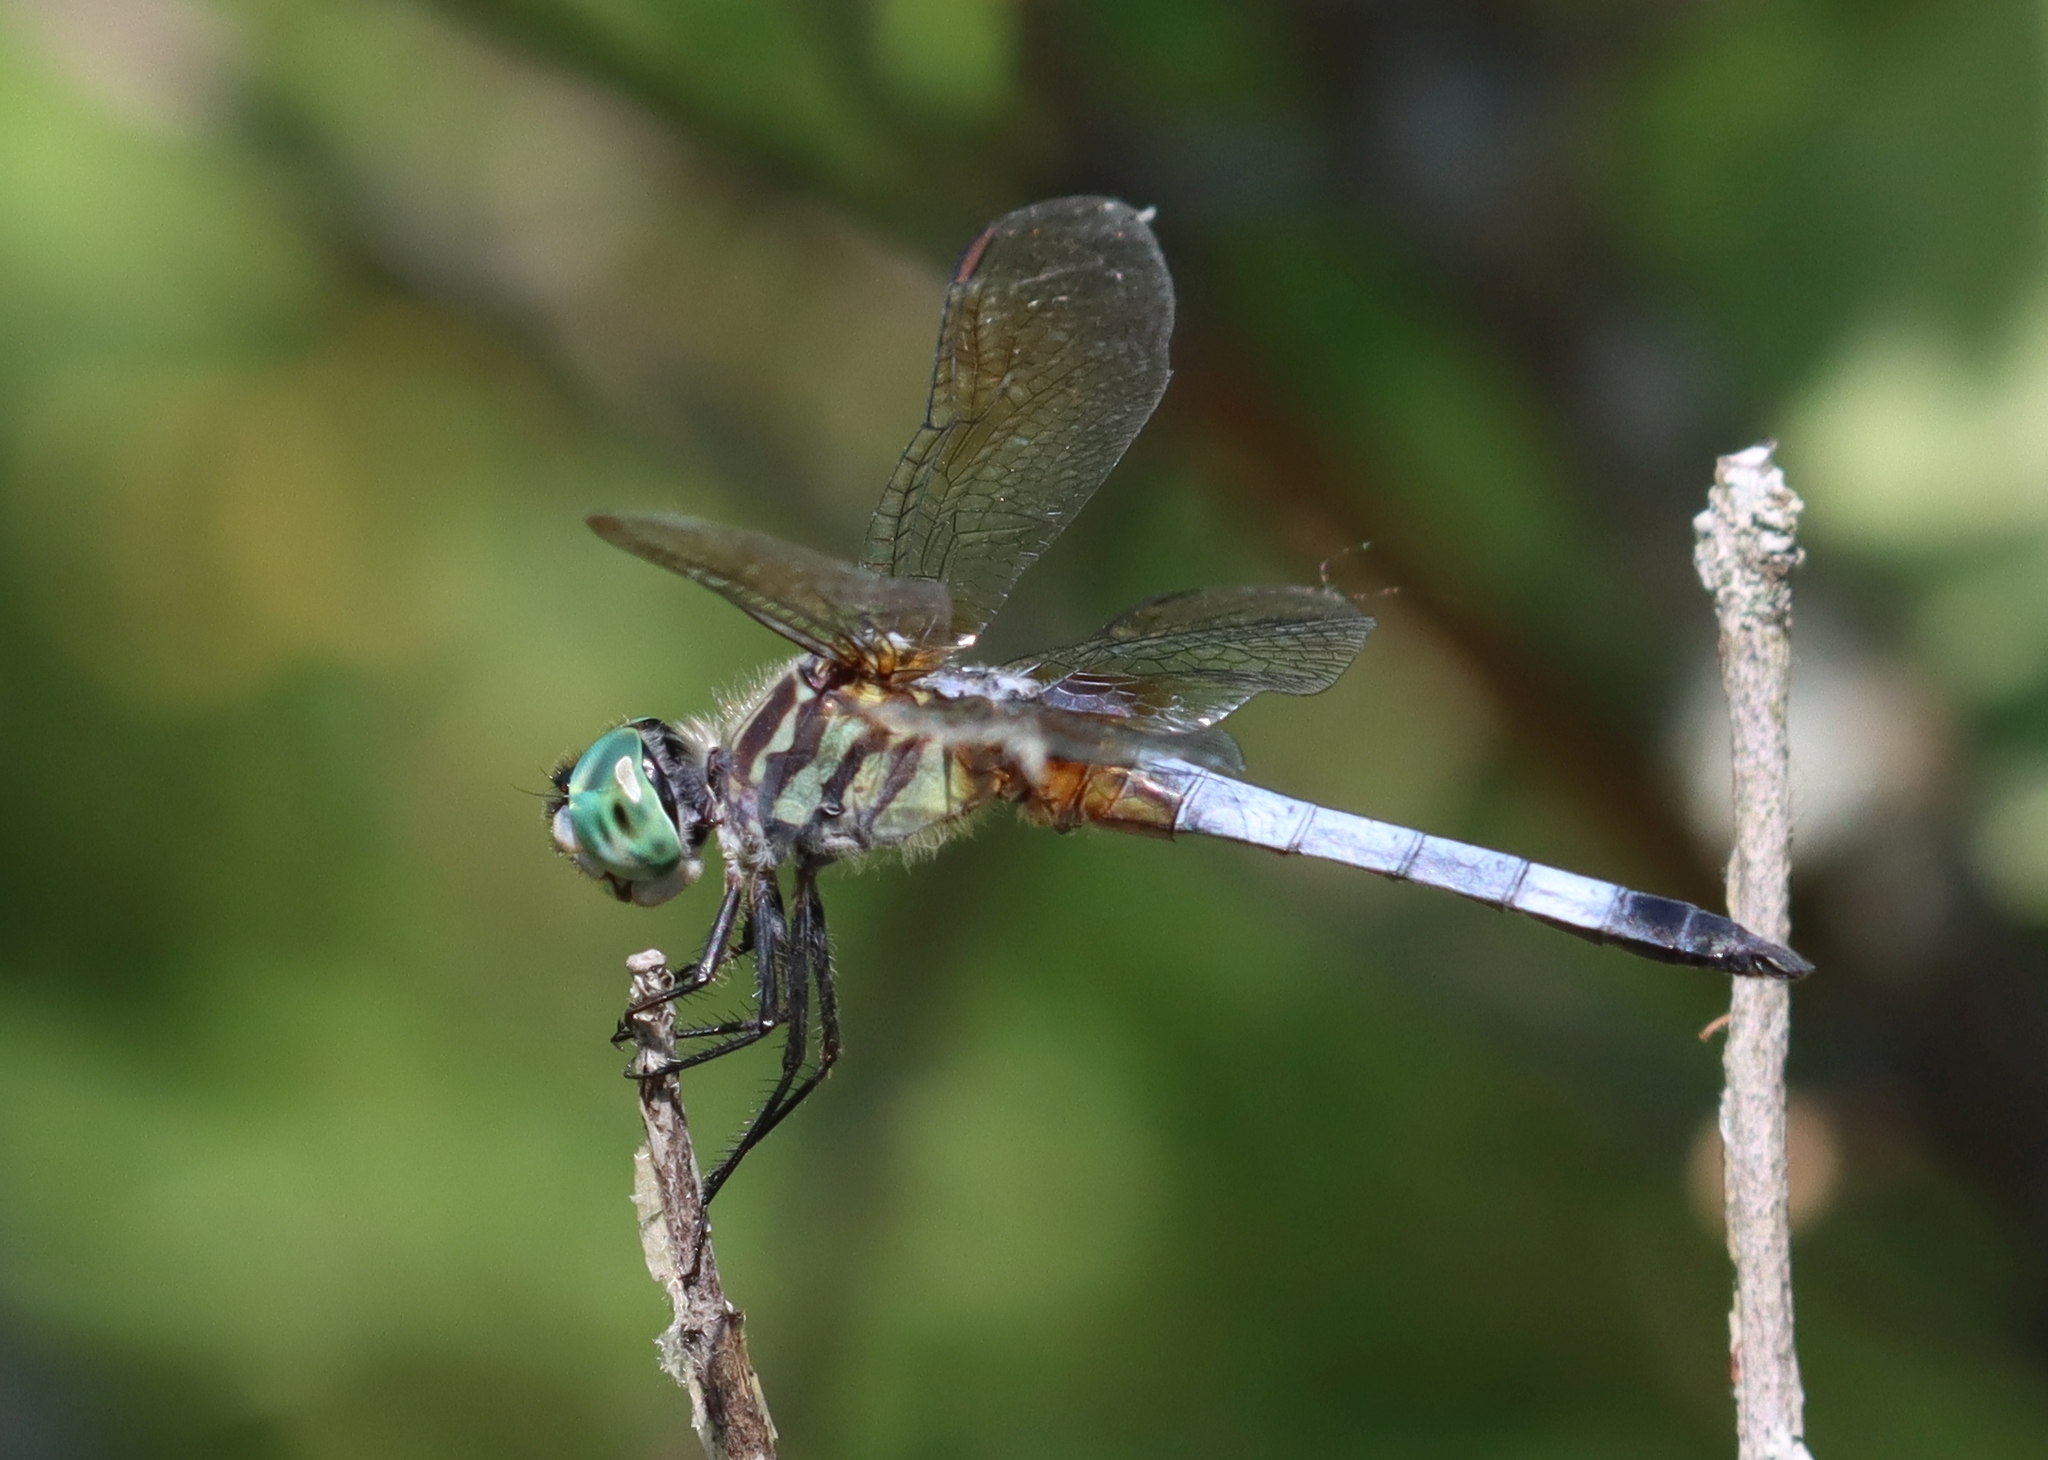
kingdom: Animalia
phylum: Arthropoda
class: Insecta
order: Odonata
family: Libellulidae
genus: Pachydiplax
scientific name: Pachydiplax longipennis
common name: Blue dasher
